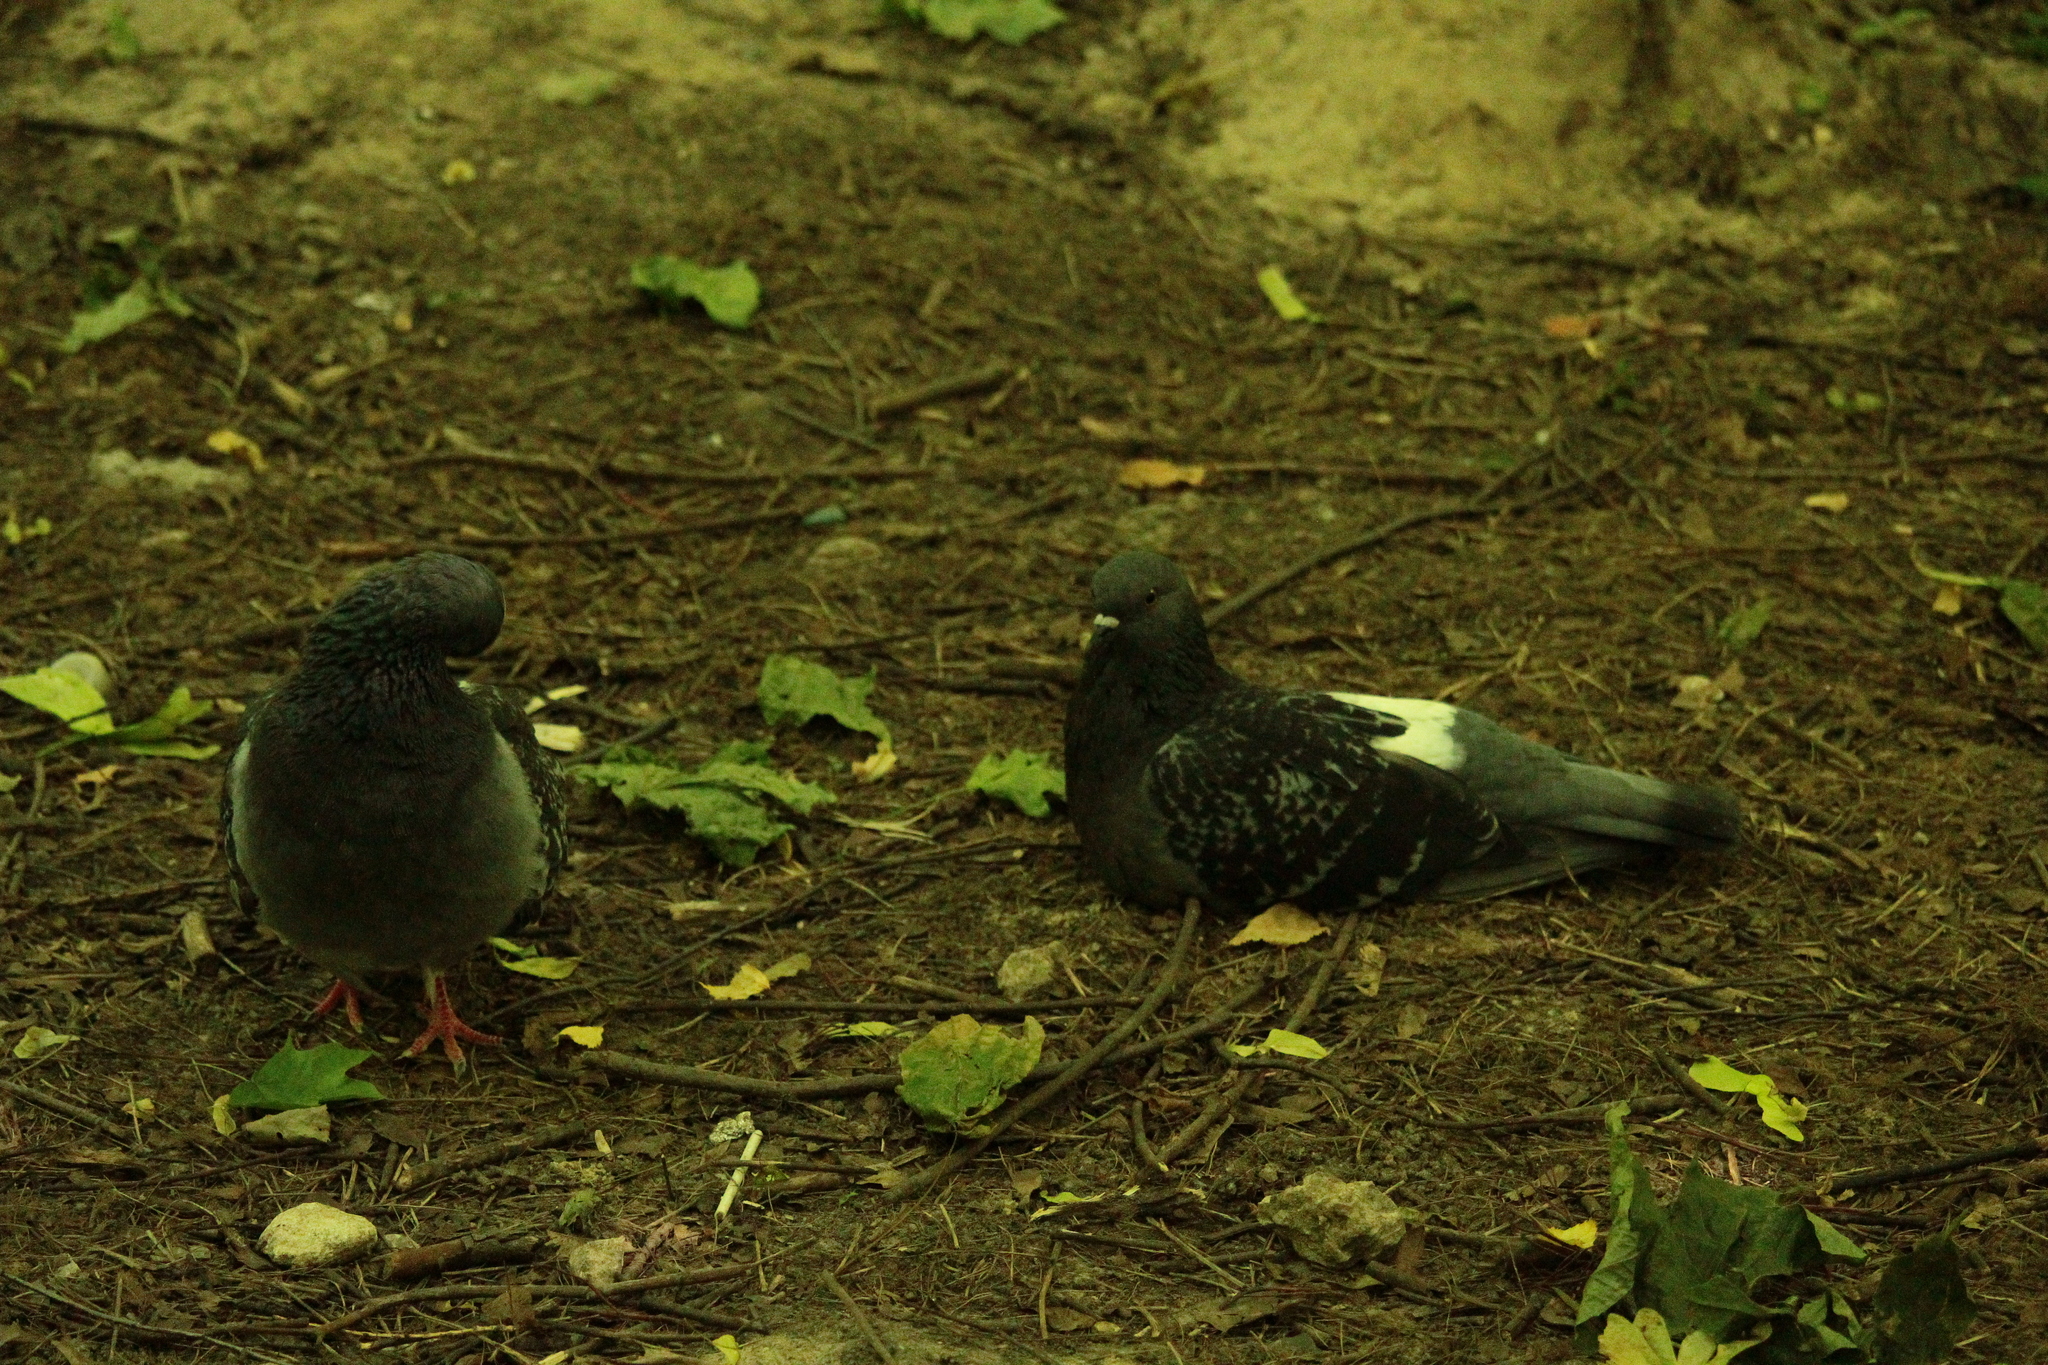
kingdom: Animalia
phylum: Chordata
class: Aves
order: Columbiformes
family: Columbidae
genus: Columba
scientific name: Columba livia
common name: Rock pigeon
